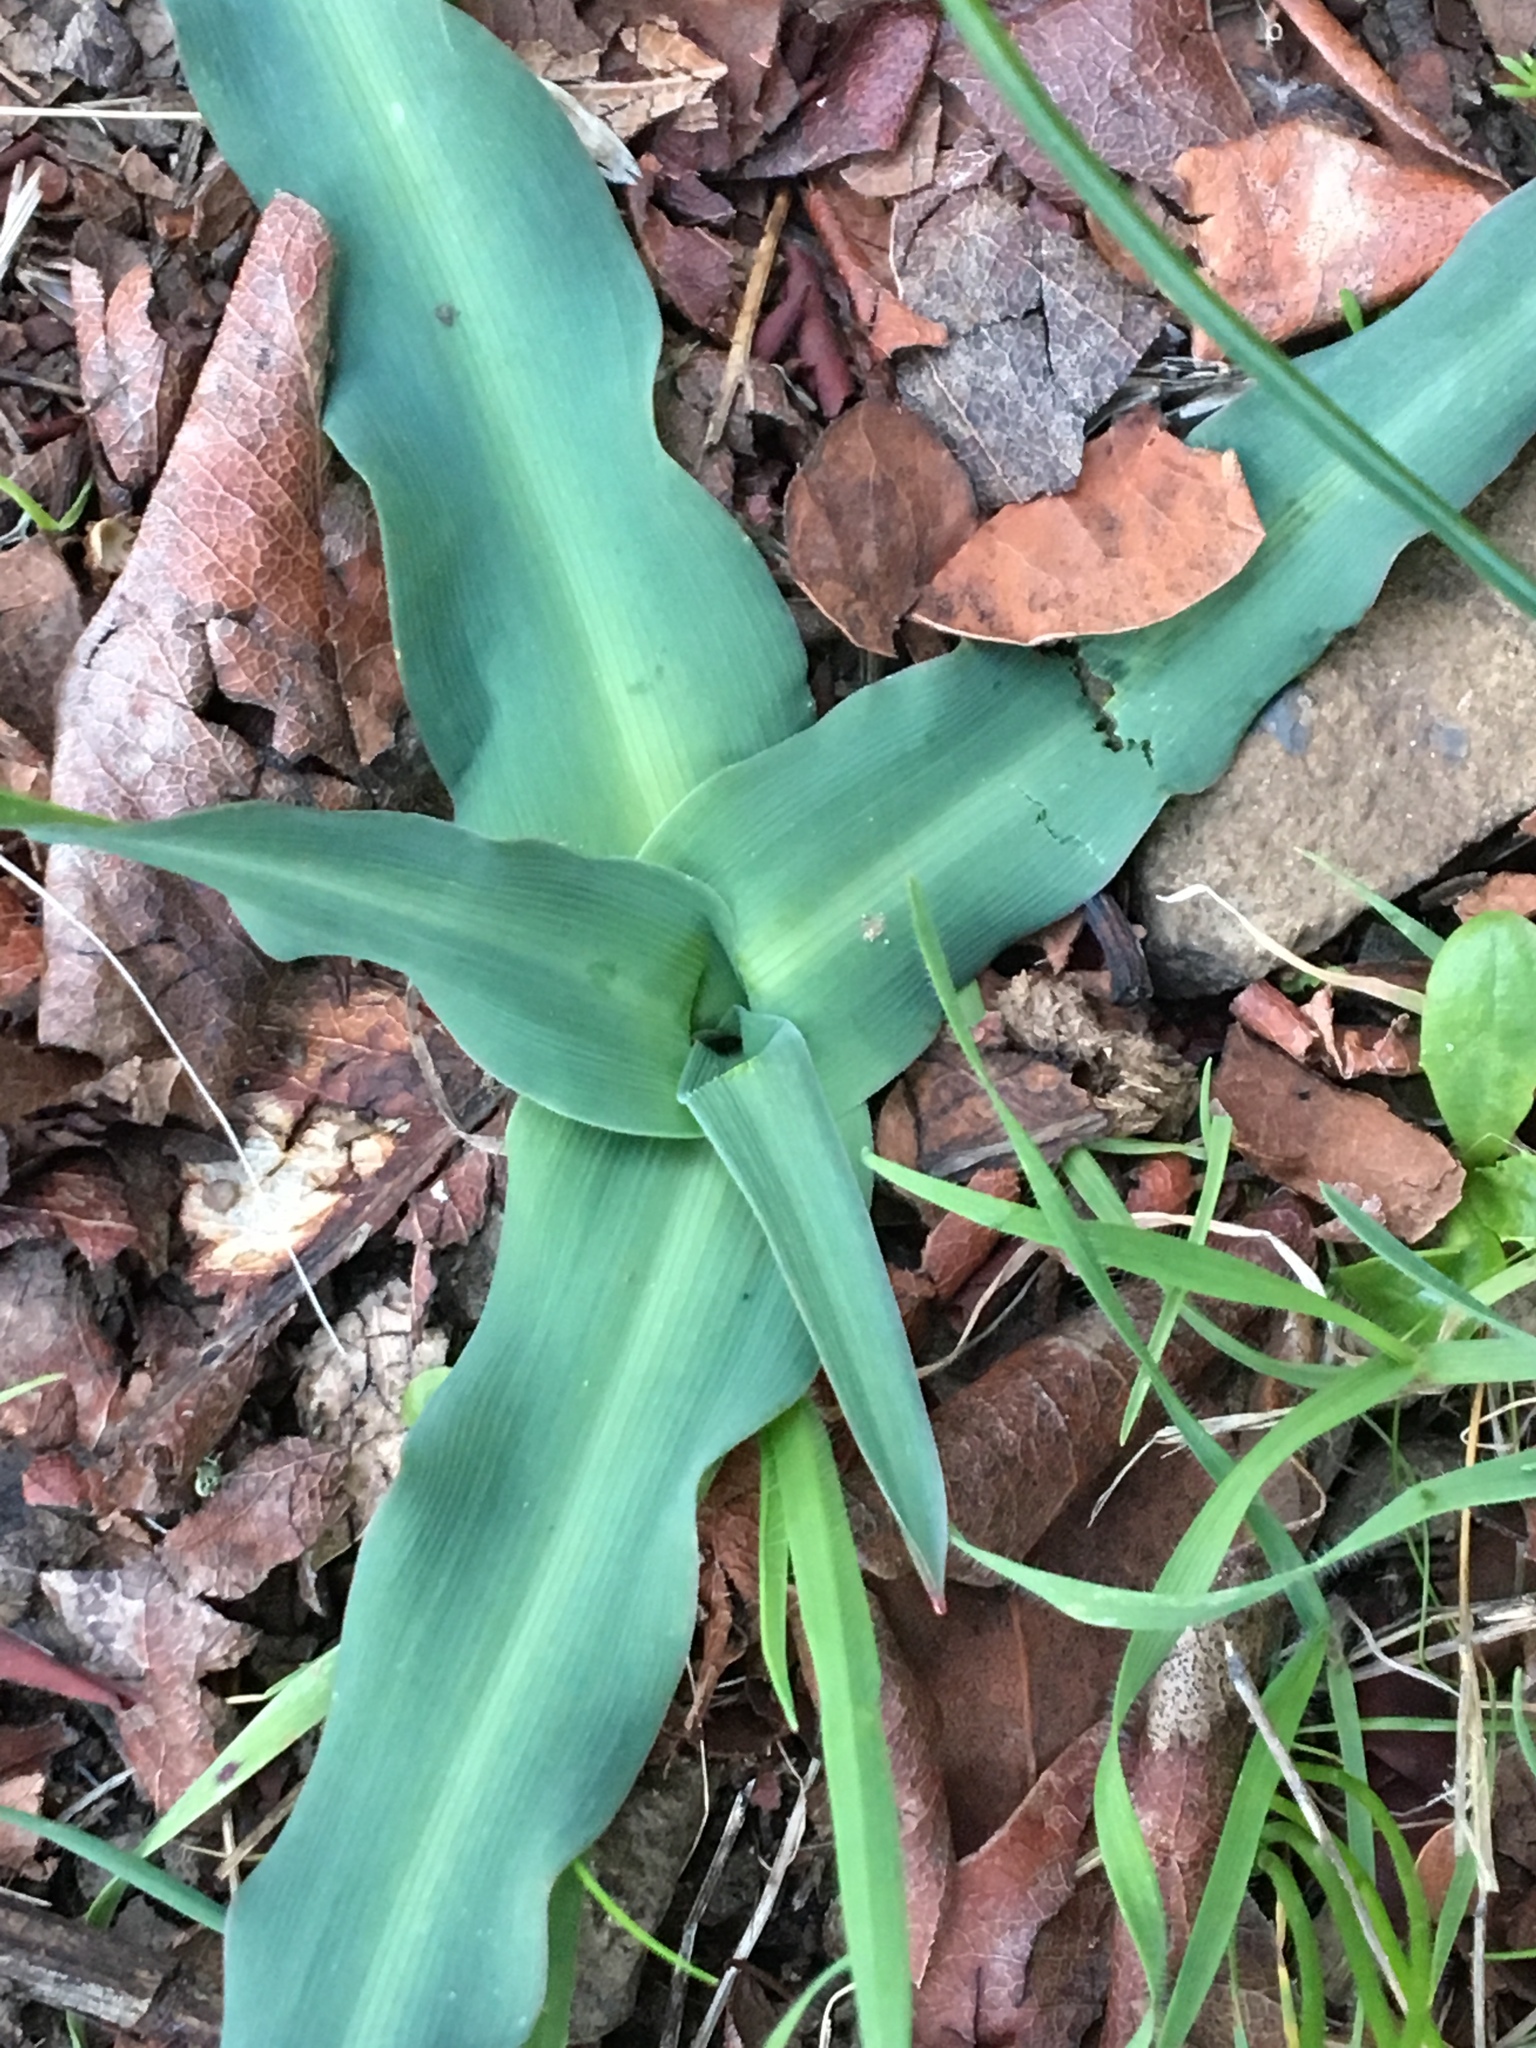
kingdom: Plantae
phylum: Tracheophyta
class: Liliopsida
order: Asparagales
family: Asparagaceae
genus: Chlorogalum
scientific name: Chlorogalum pomeridianum
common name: Amole
